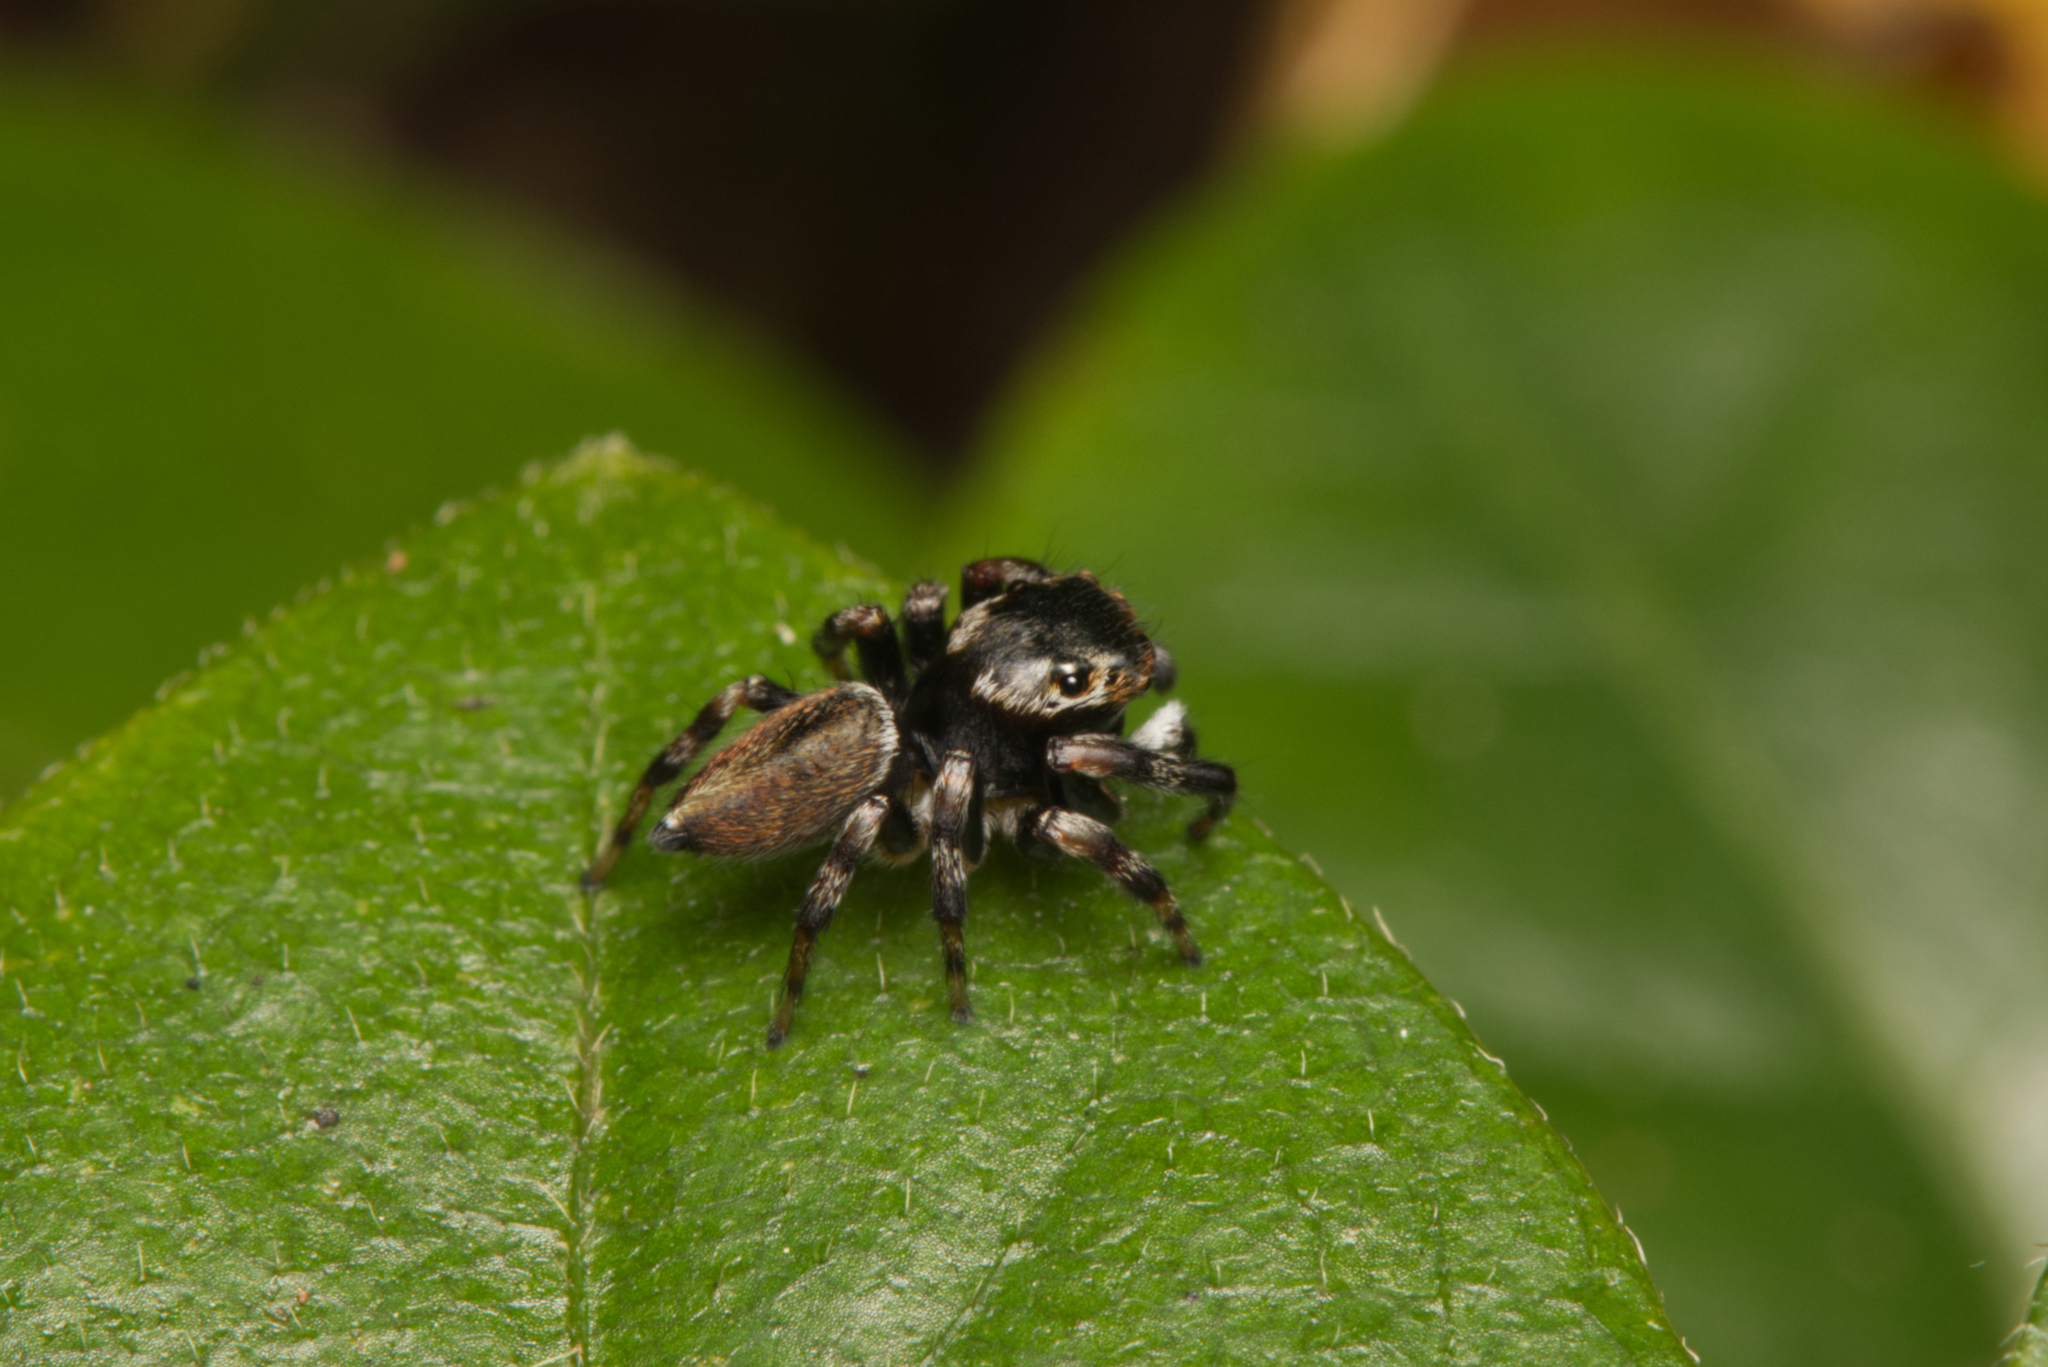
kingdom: Animalia
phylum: Arthropoda
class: Arachnida
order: Araneae
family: Salticidae
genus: Maratus
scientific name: Maratus scutulatus
